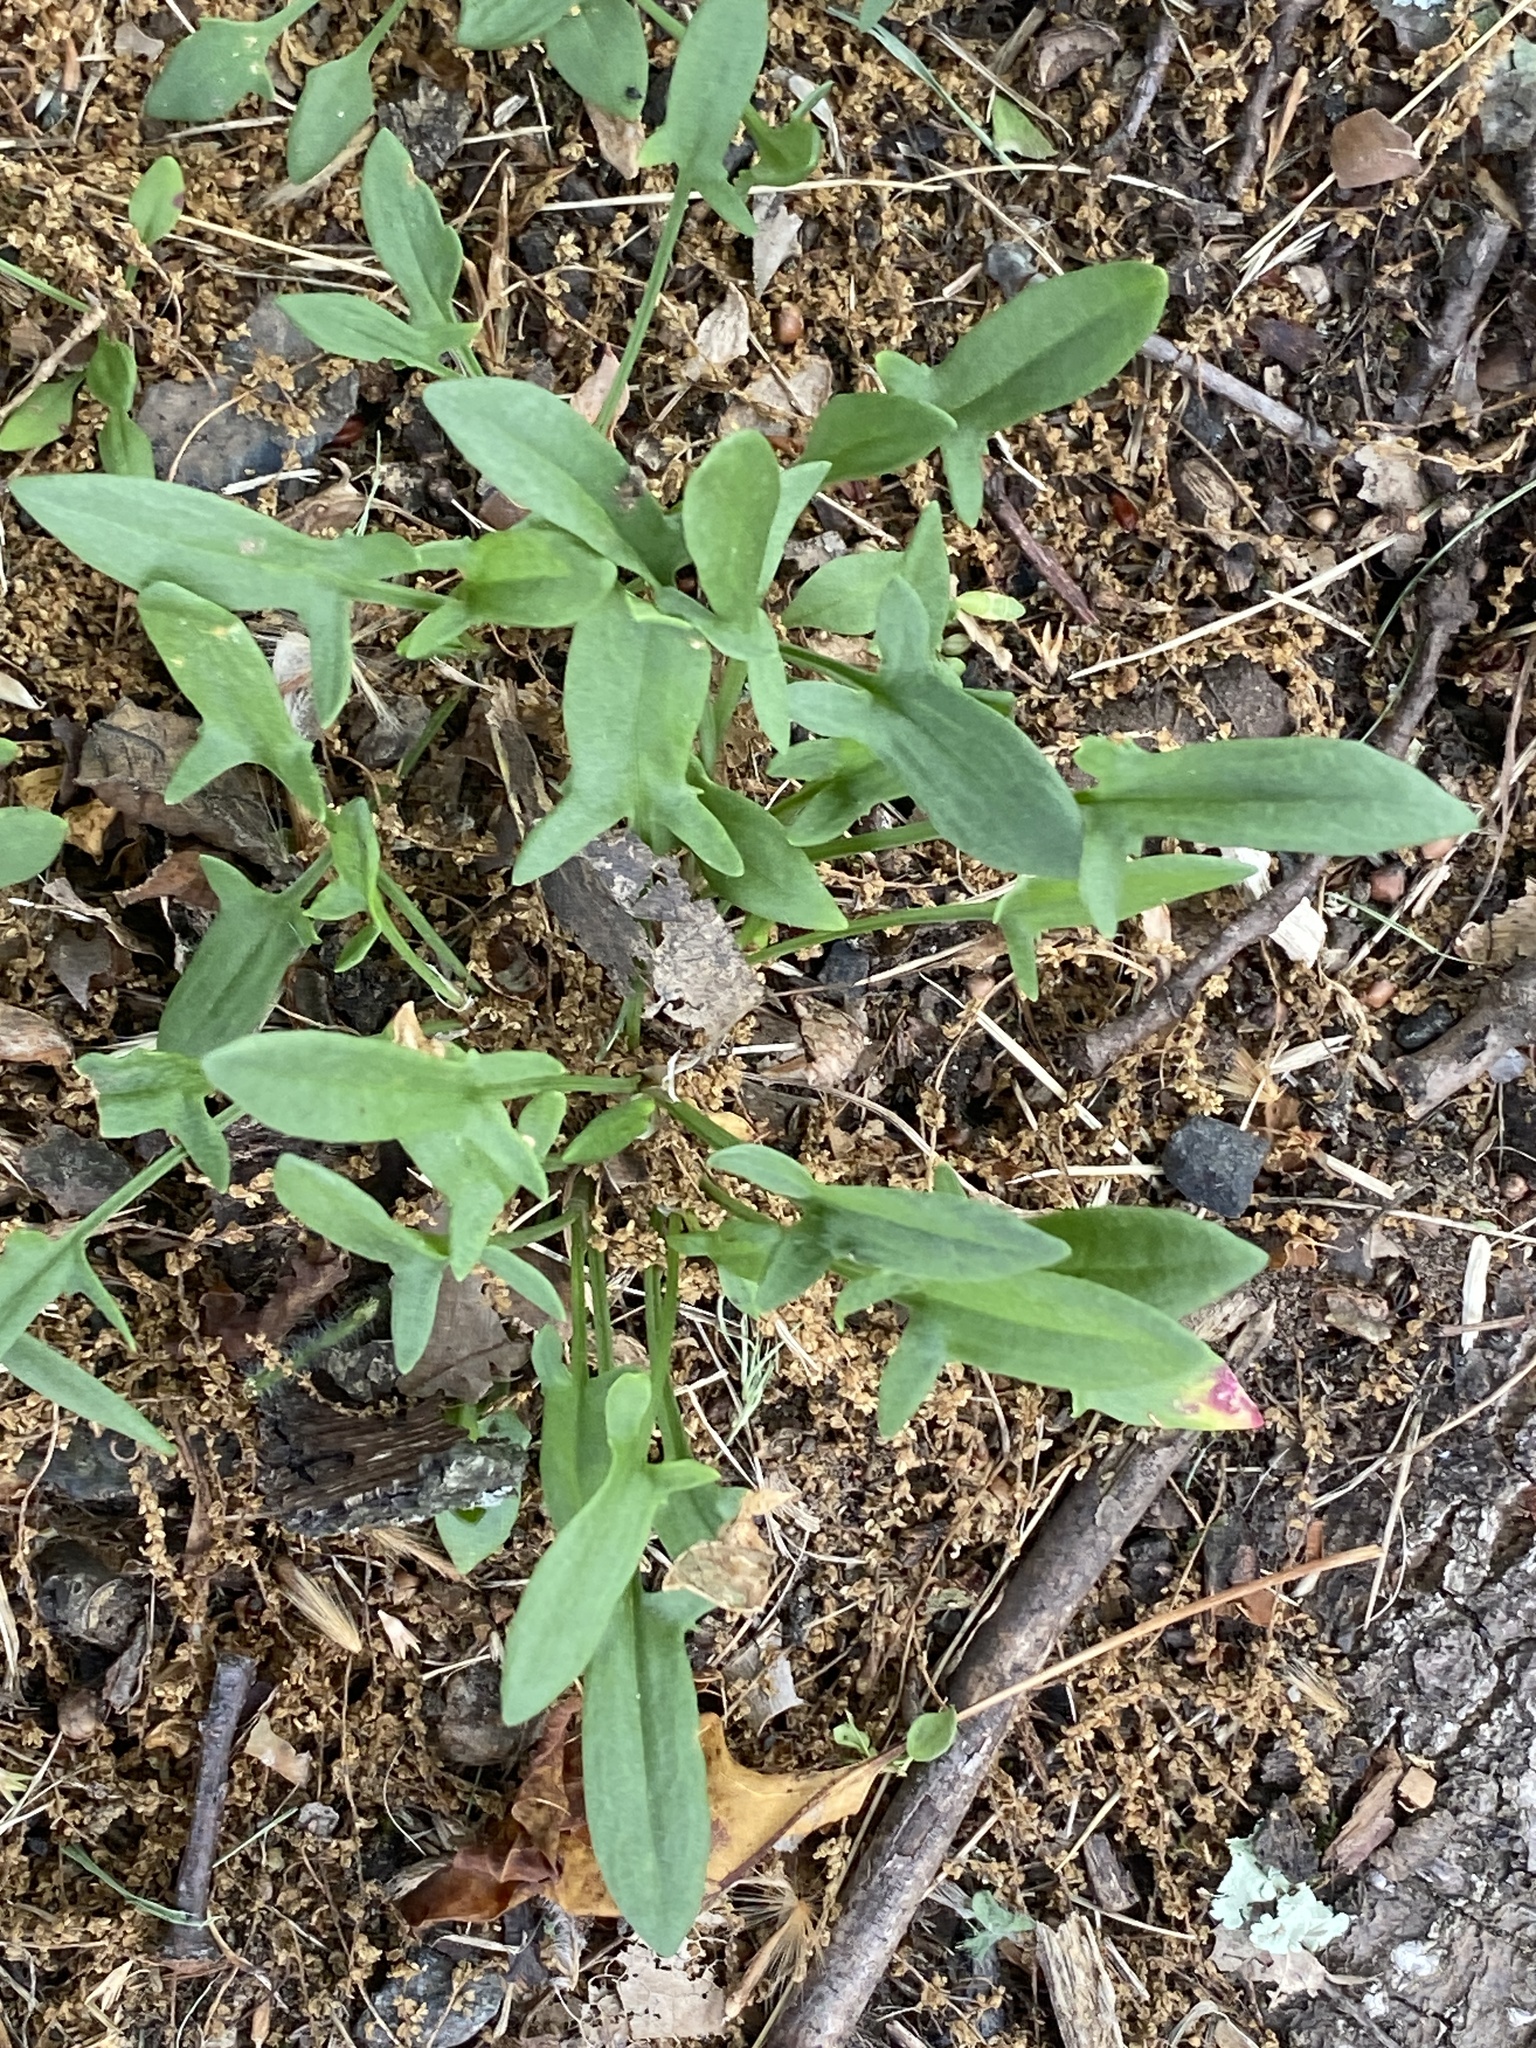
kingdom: Plantae
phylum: Tracheophyta
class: Magnoliopsida
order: Caryophyllales
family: Polygonaceae
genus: Rumex
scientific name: Rumex acetosella
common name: Common sheep sorrel
